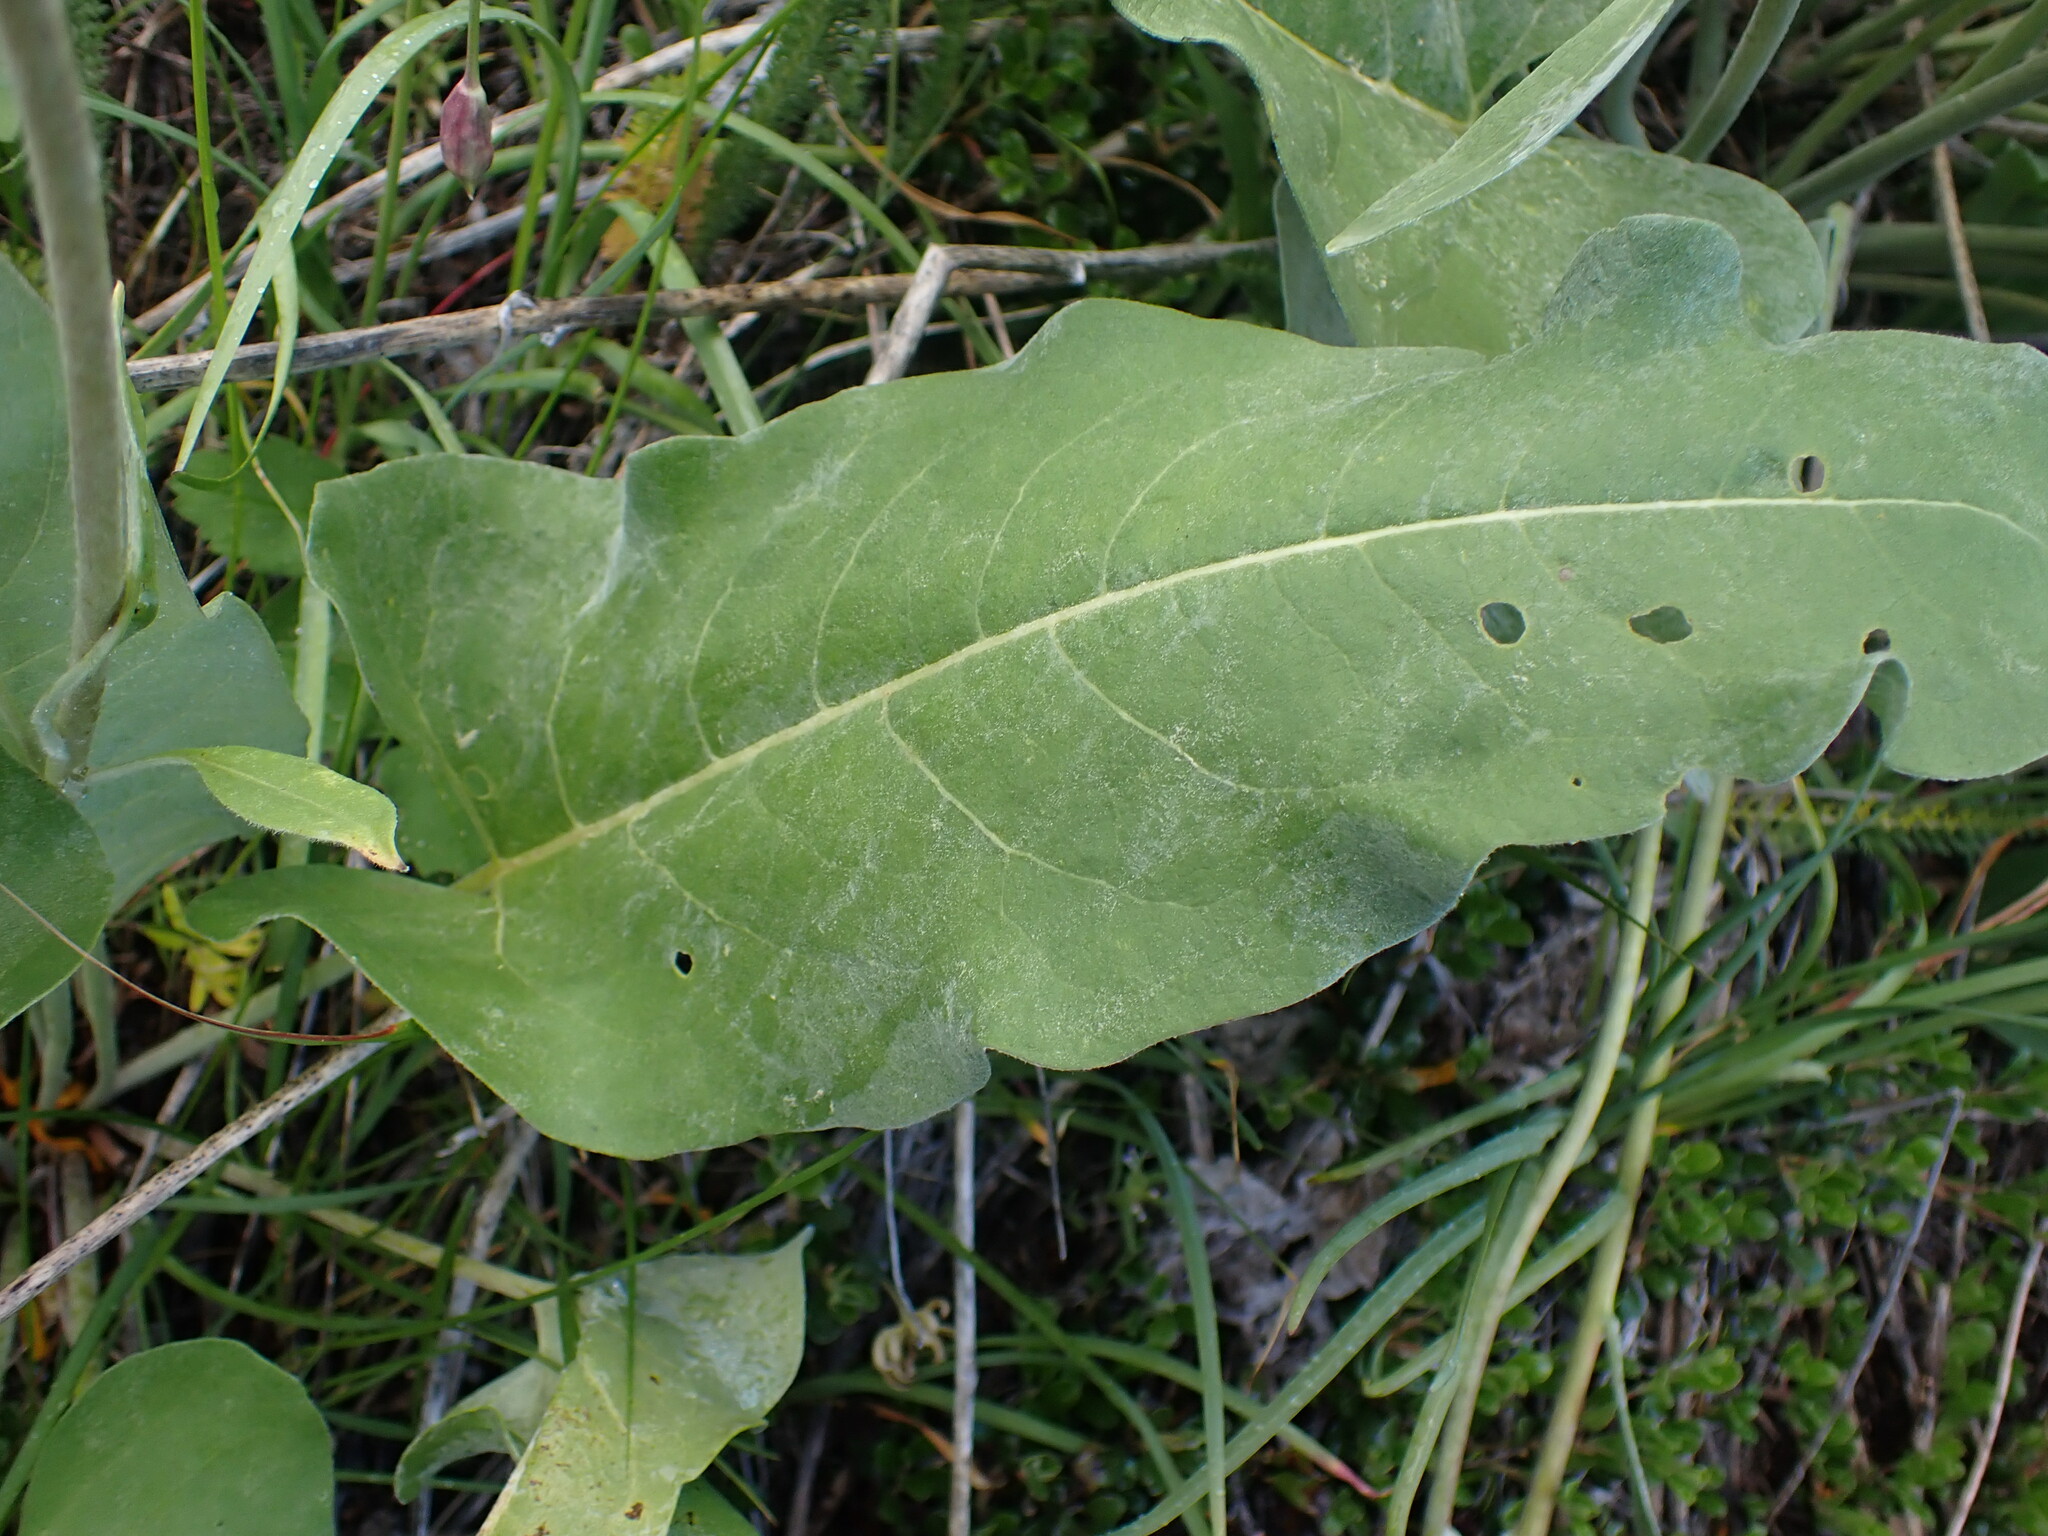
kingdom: Plantae
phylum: Tracheophyta
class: Magnoliopsida
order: Asterales
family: Asteraceae
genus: Wyethia
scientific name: Wyethia sagittata
